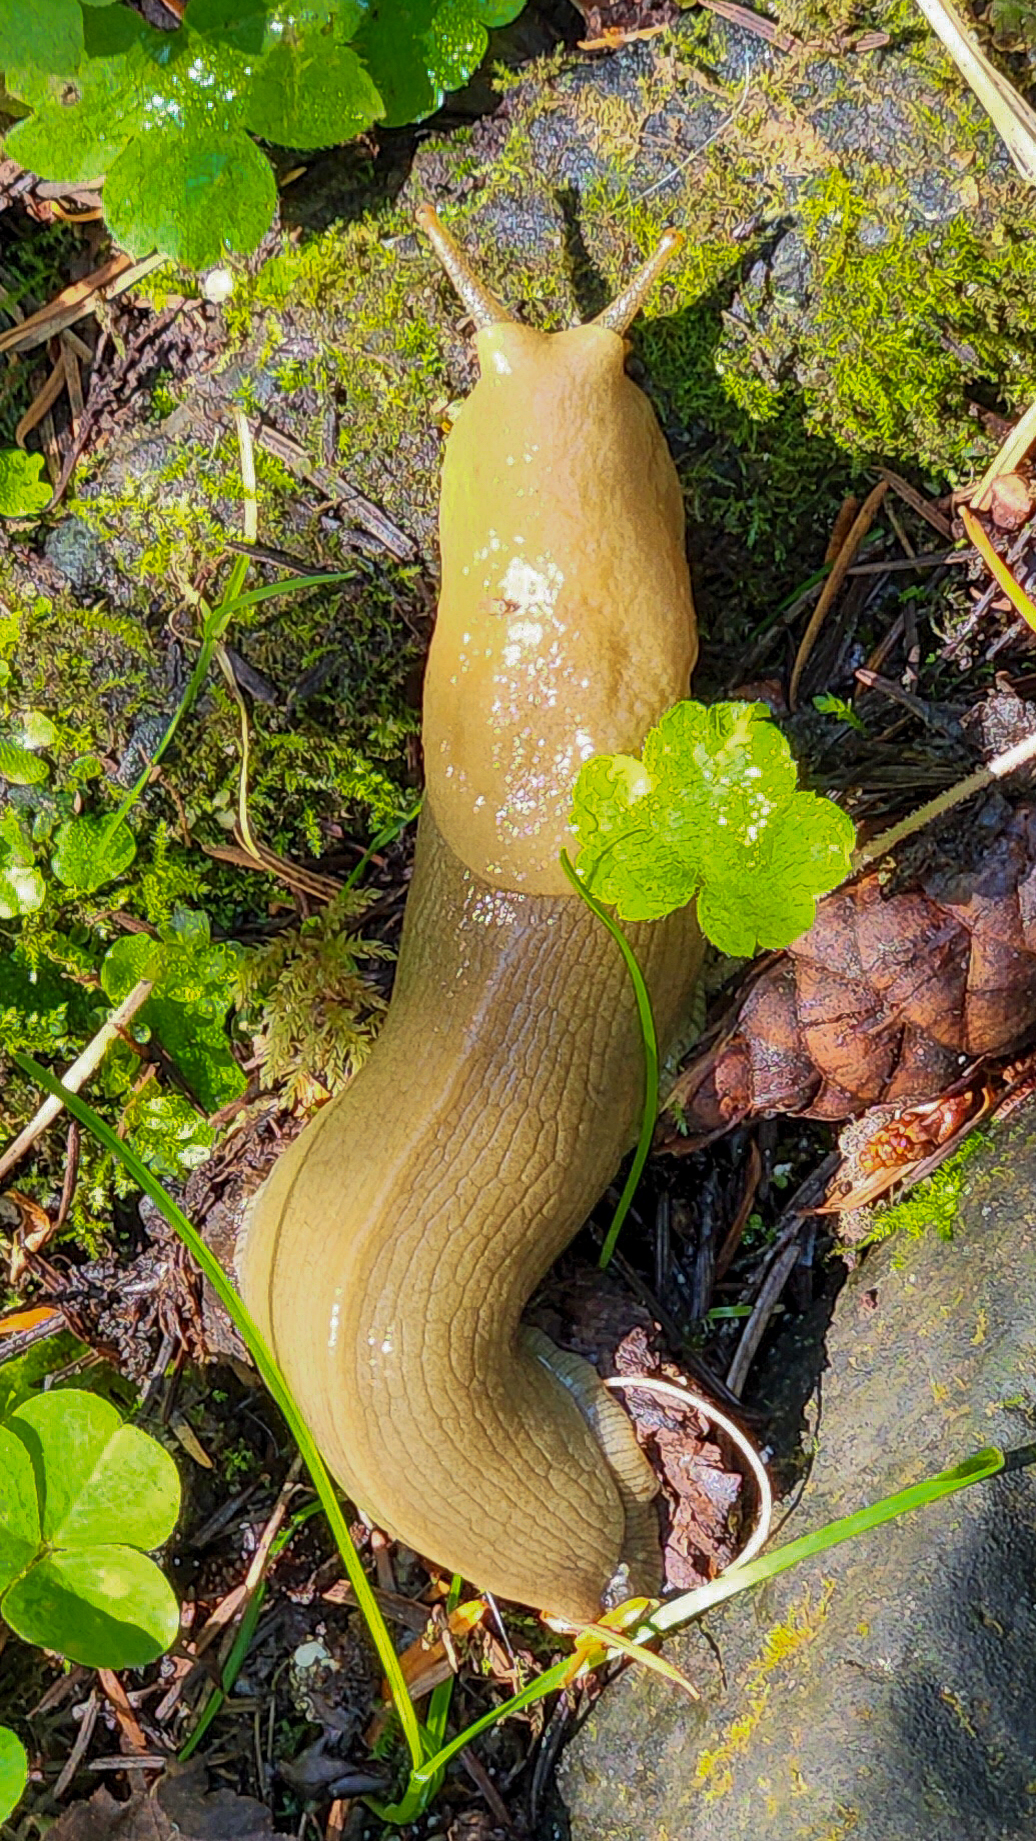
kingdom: Animalia
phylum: Mollusca
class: Gastropoda
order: Stylommatophora
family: Ariolimacidae
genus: Ariolimax
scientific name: Ariolimax columbianus
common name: Pacific banana slug
